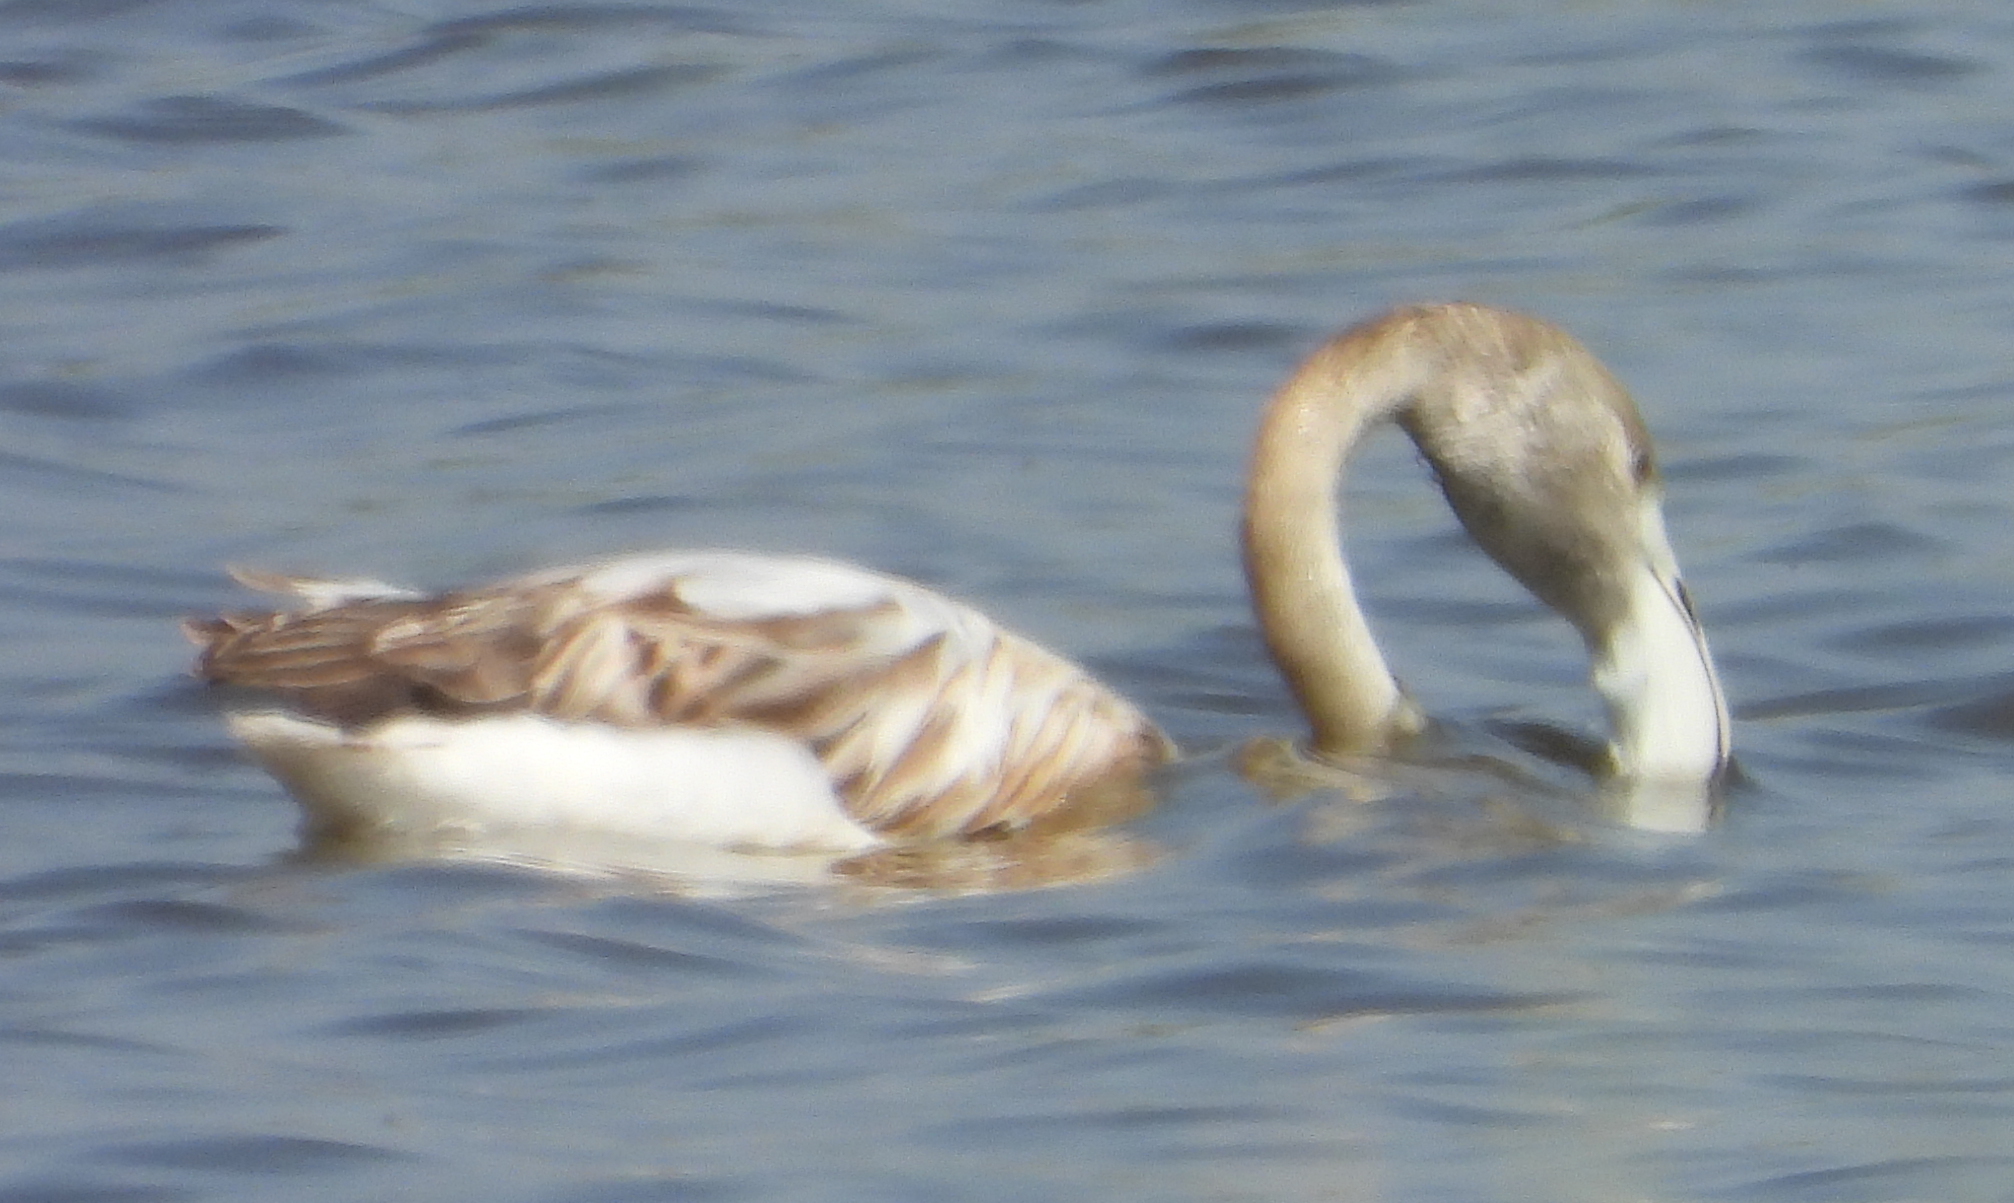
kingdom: Animalia
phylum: Chordata
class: Aves
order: Phoenicopteriformes
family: Phoenicopteridae
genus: Phoenicopterus
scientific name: Phoenicopterus roseus
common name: Greater flamingo
